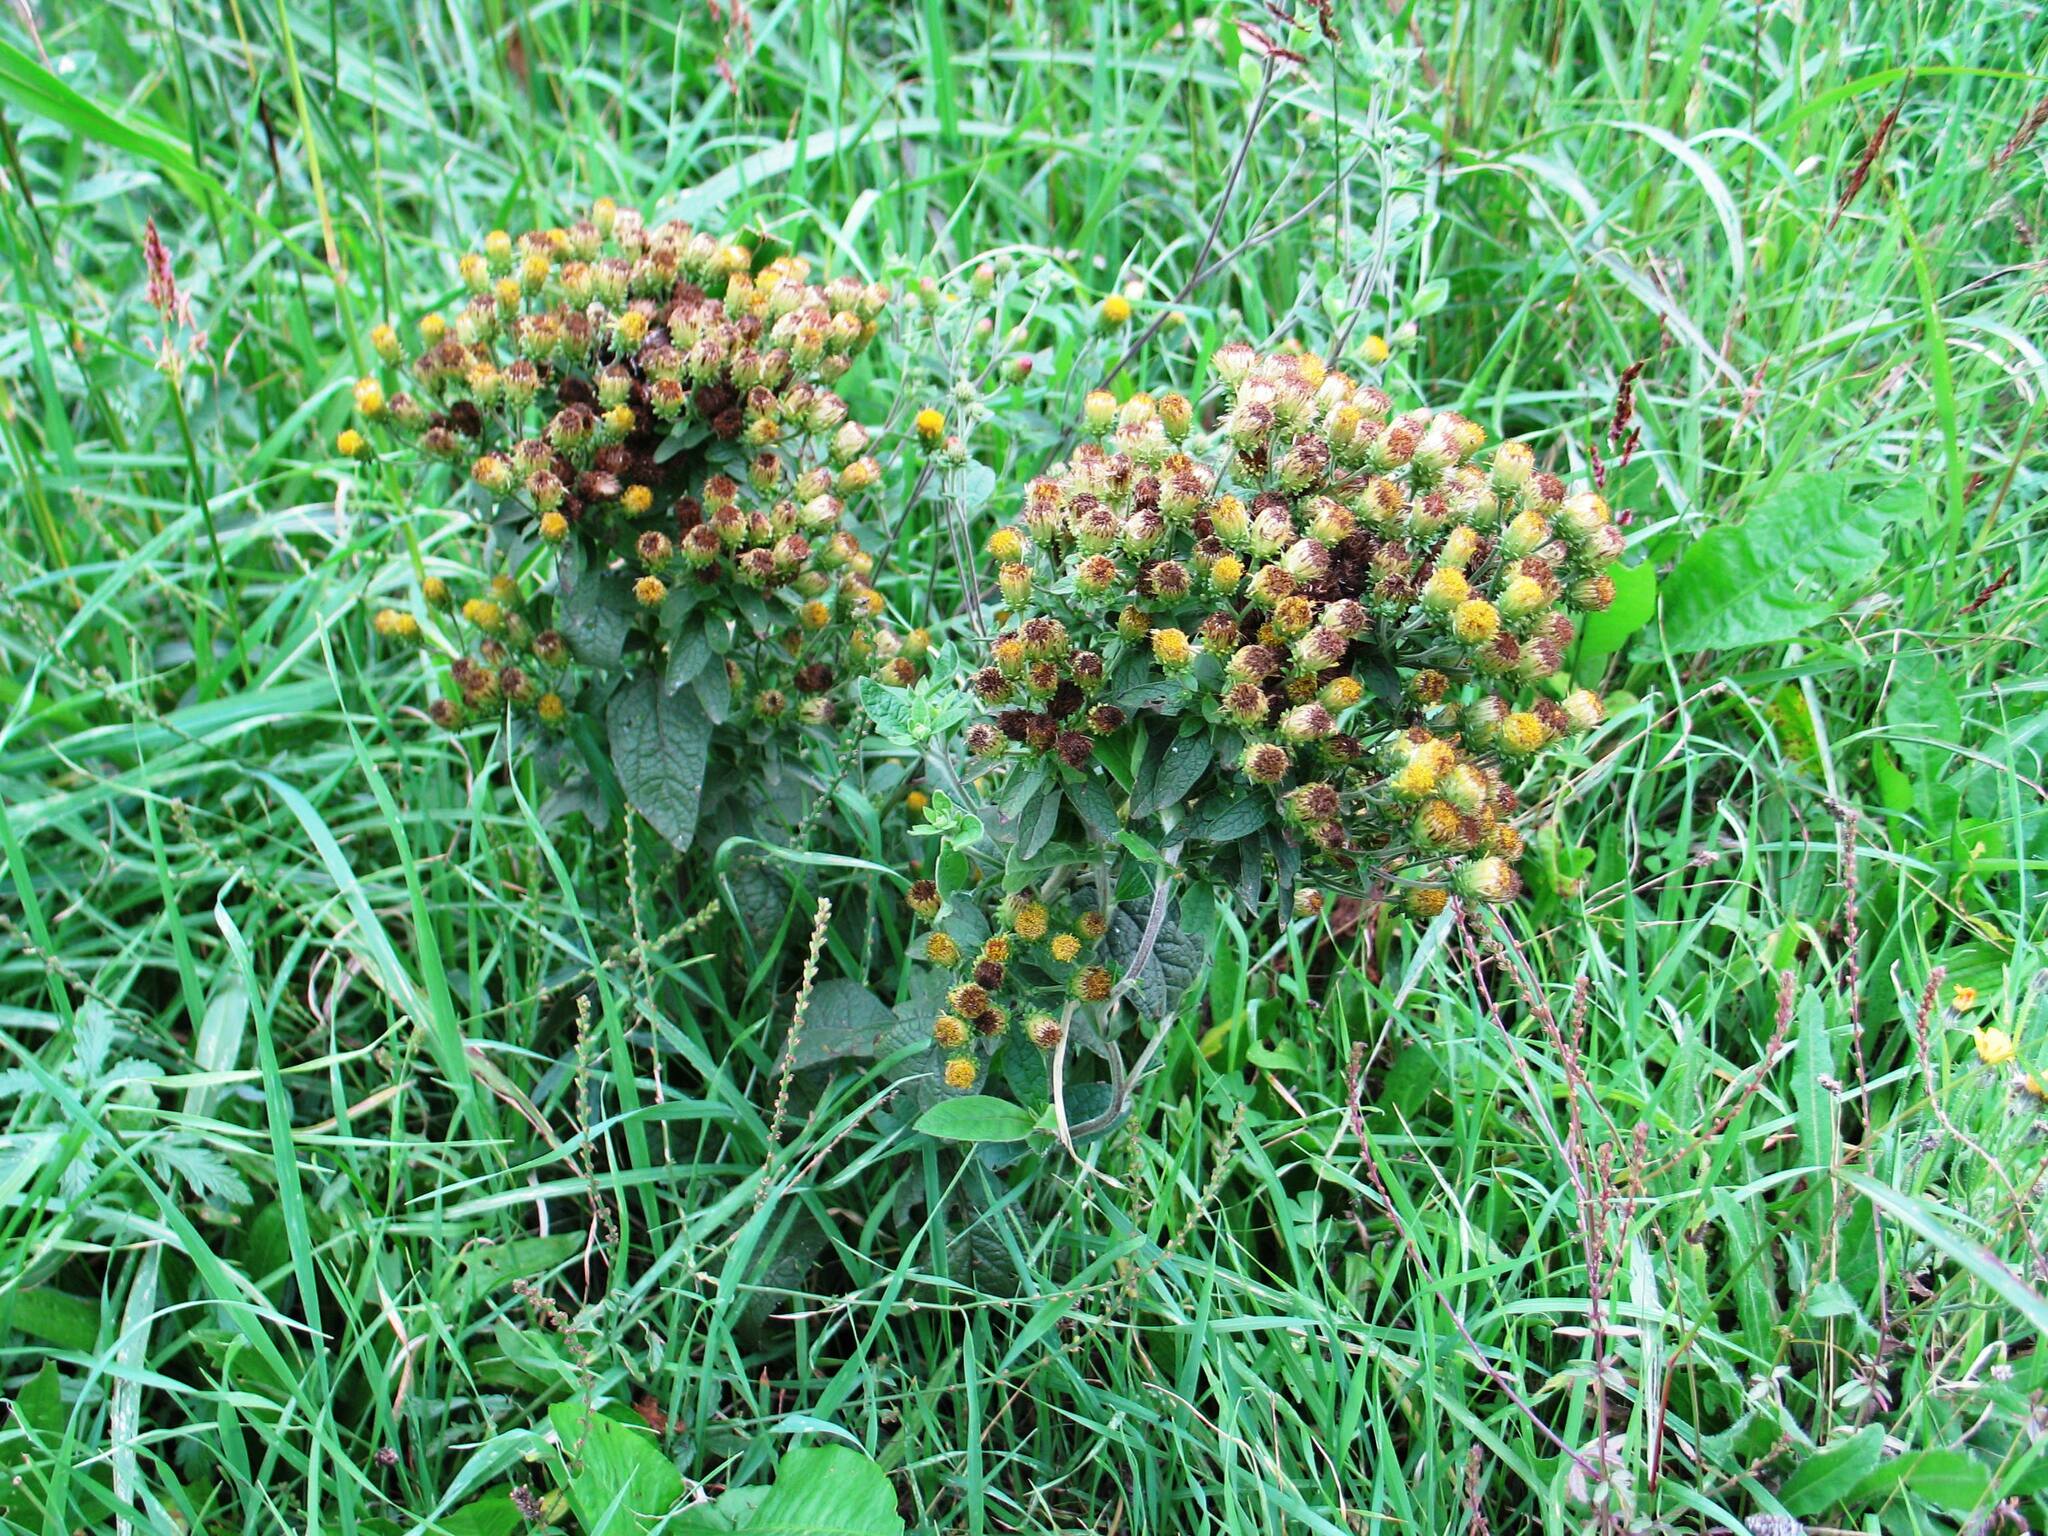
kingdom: Plantae
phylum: Tracheophyta
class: Magnoliopsida
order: Asterales
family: Asteraceae
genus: Pentanema
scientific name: Pentanema squarrosum
